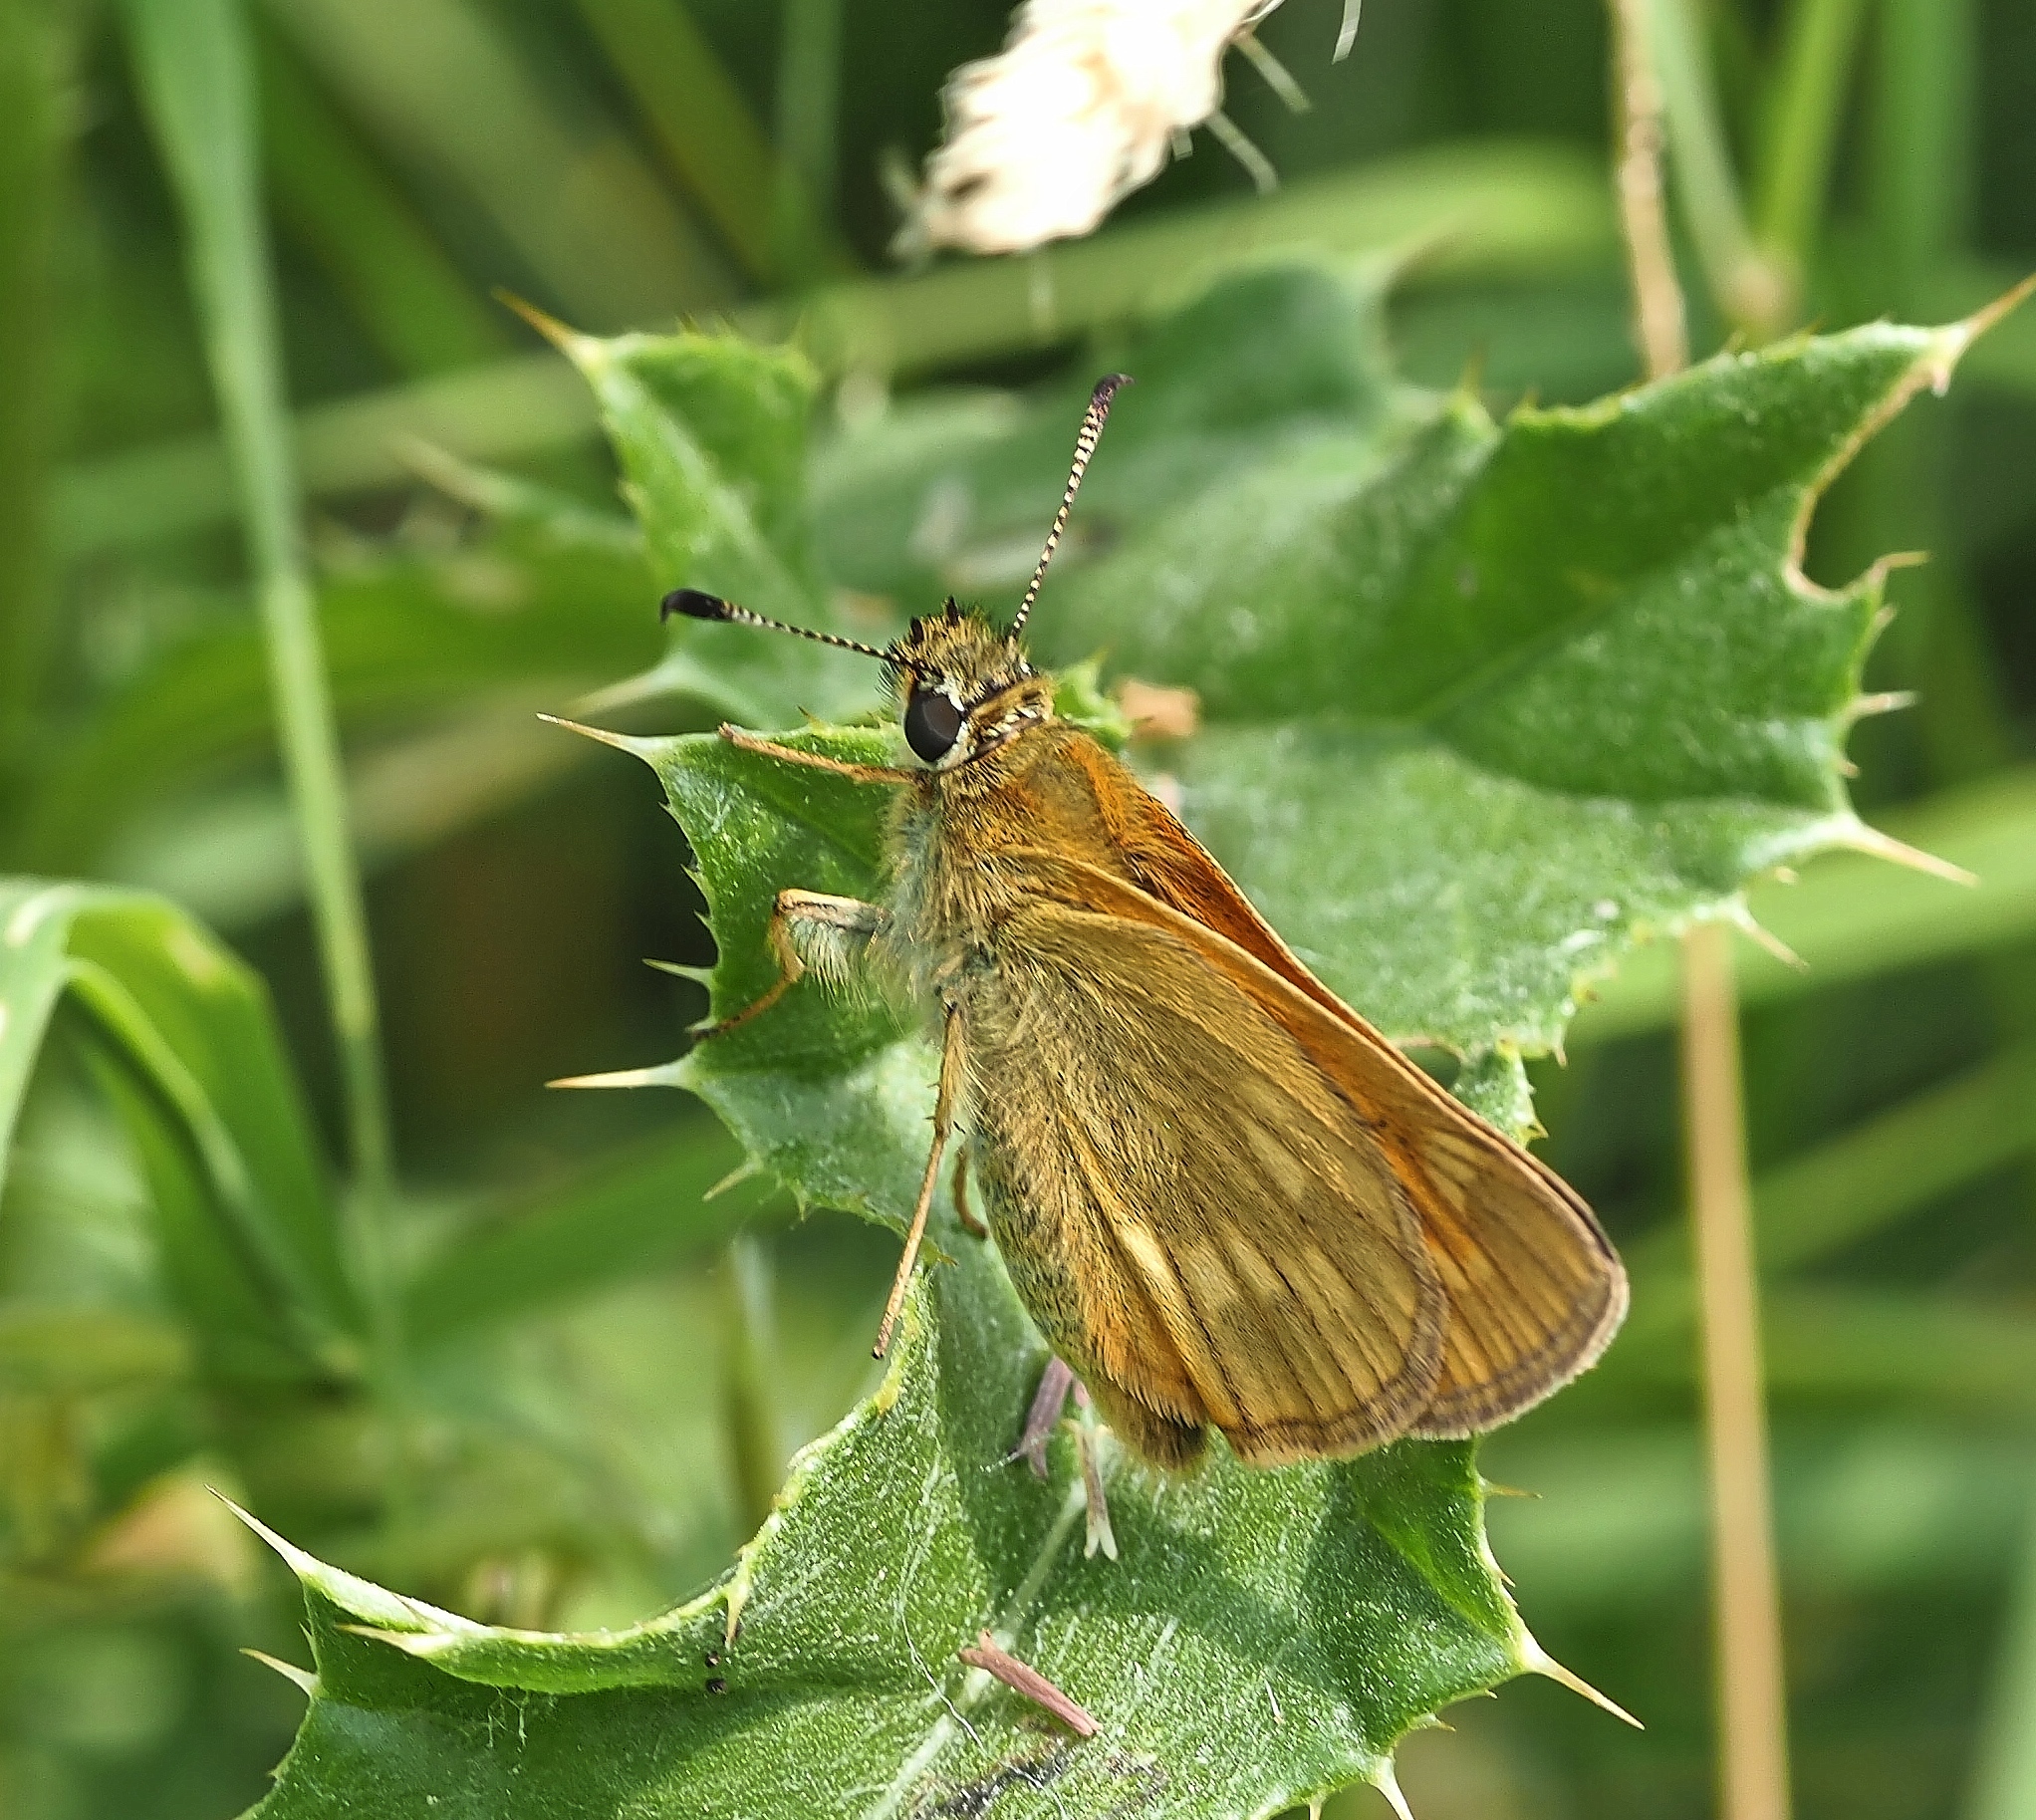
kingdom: Animalia
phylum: Arthropoda
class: Insecta
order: Lepidoptera
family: Hesperiidae
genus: Ochlodes
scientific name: Ochlodes venata
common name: Large skipper
